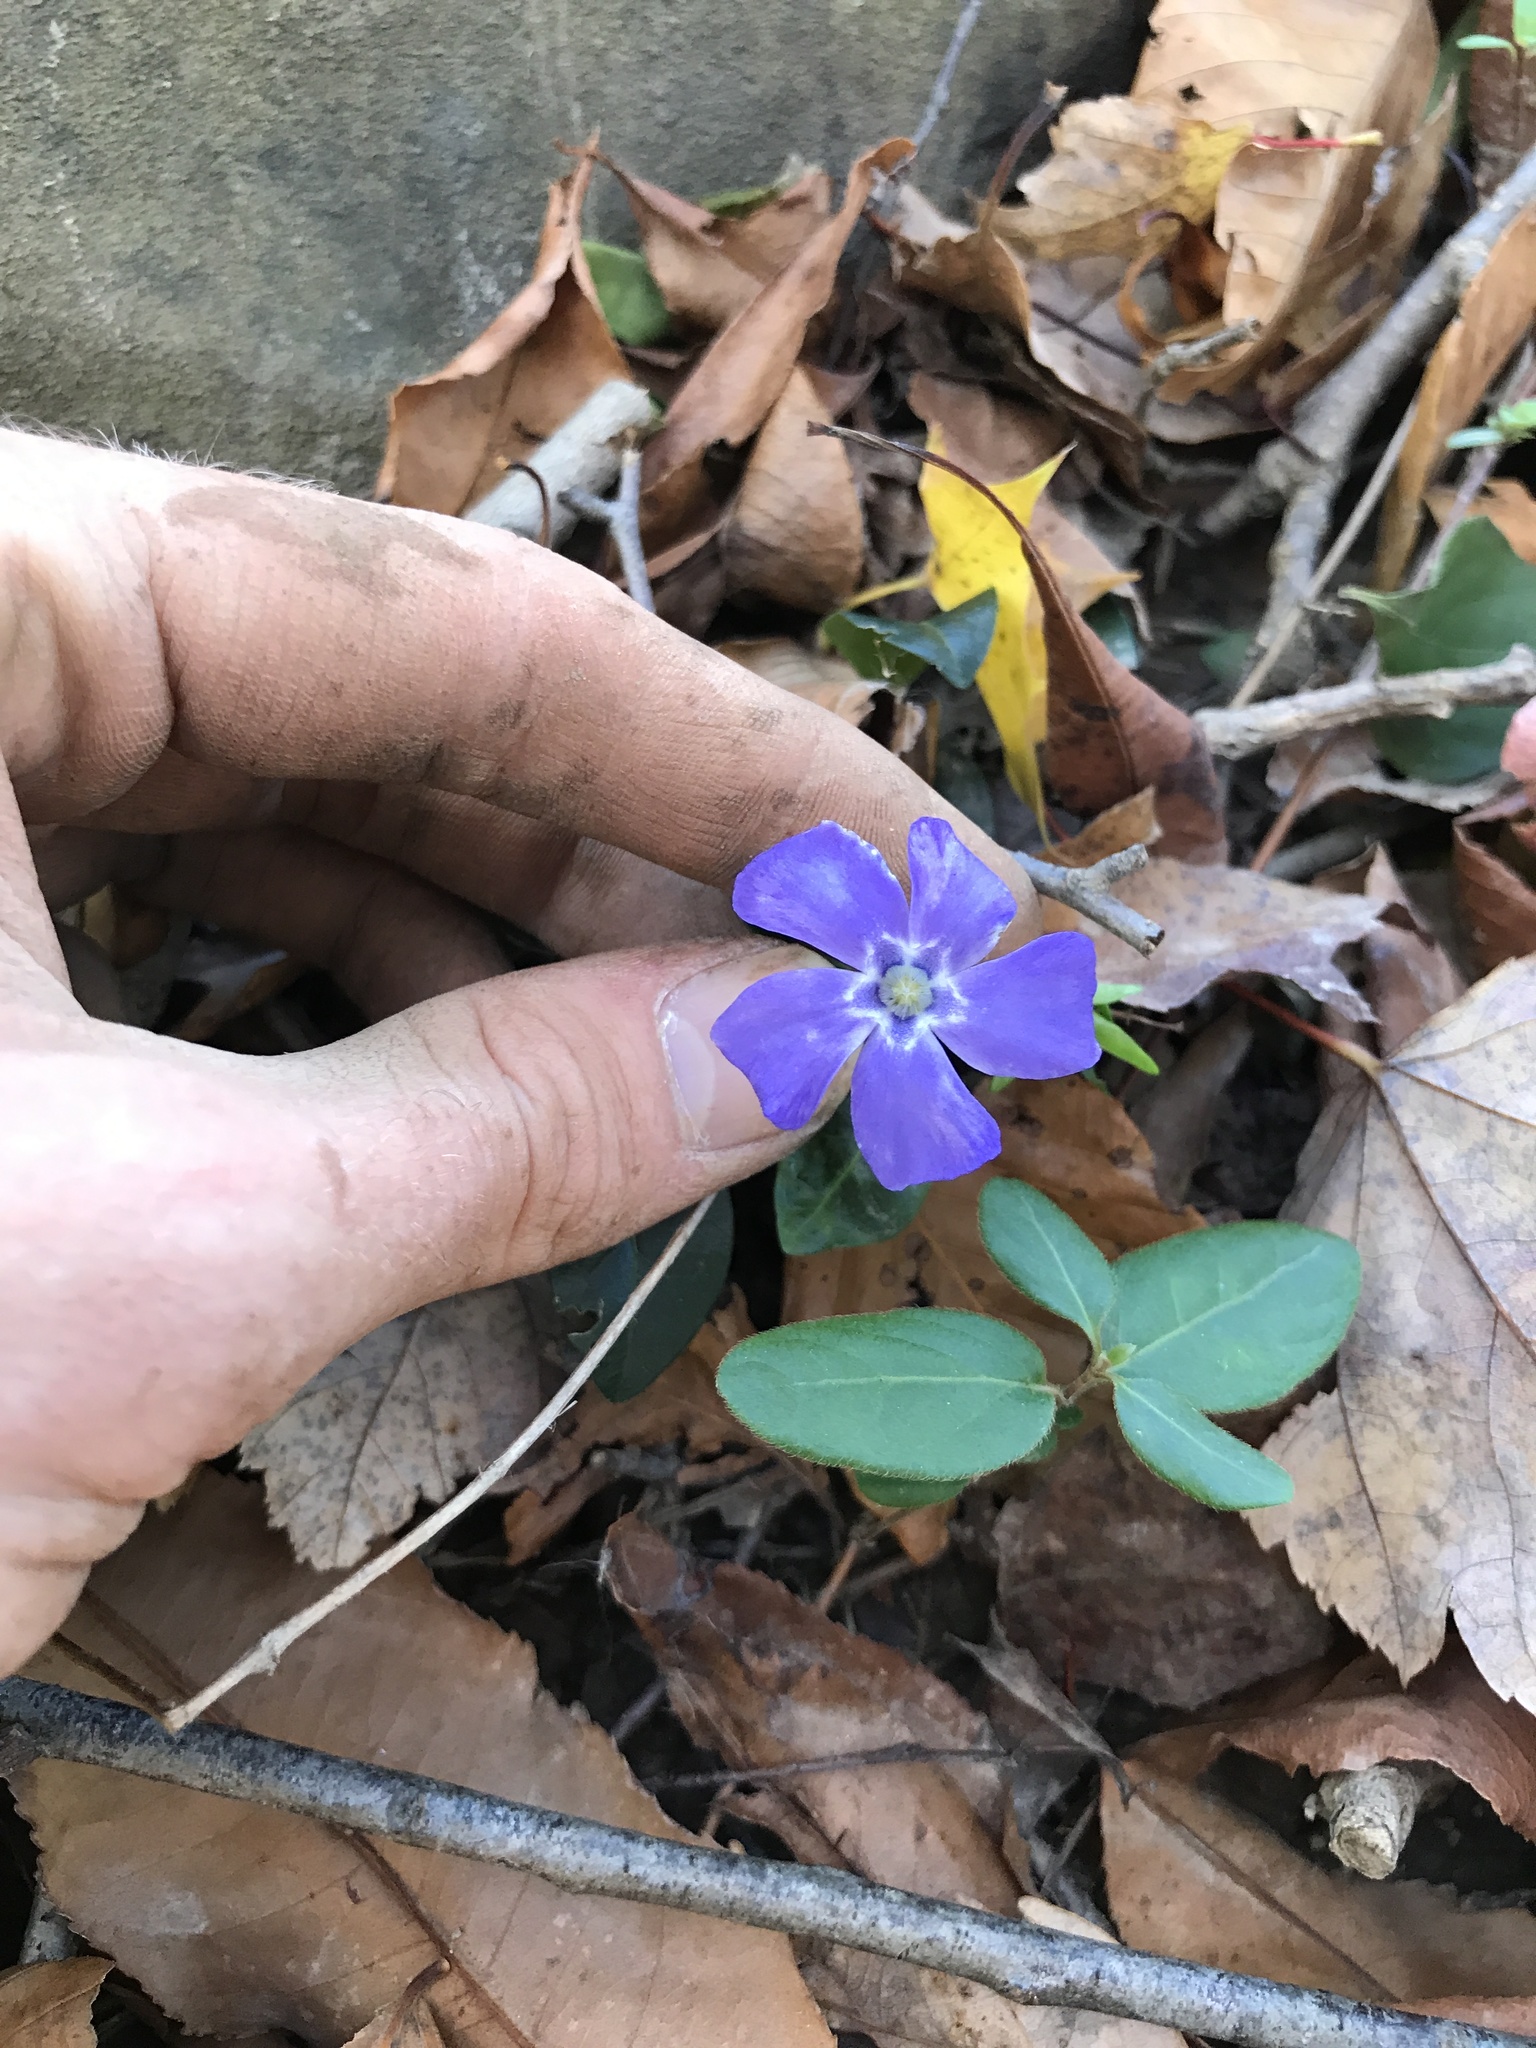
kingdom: Plantae
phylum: Tracheophyta
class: Magnoliopsida
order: Gentianales
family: Apocynaceae
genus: Vinca
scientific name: Vinca minor
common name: Lesser periwinkle
